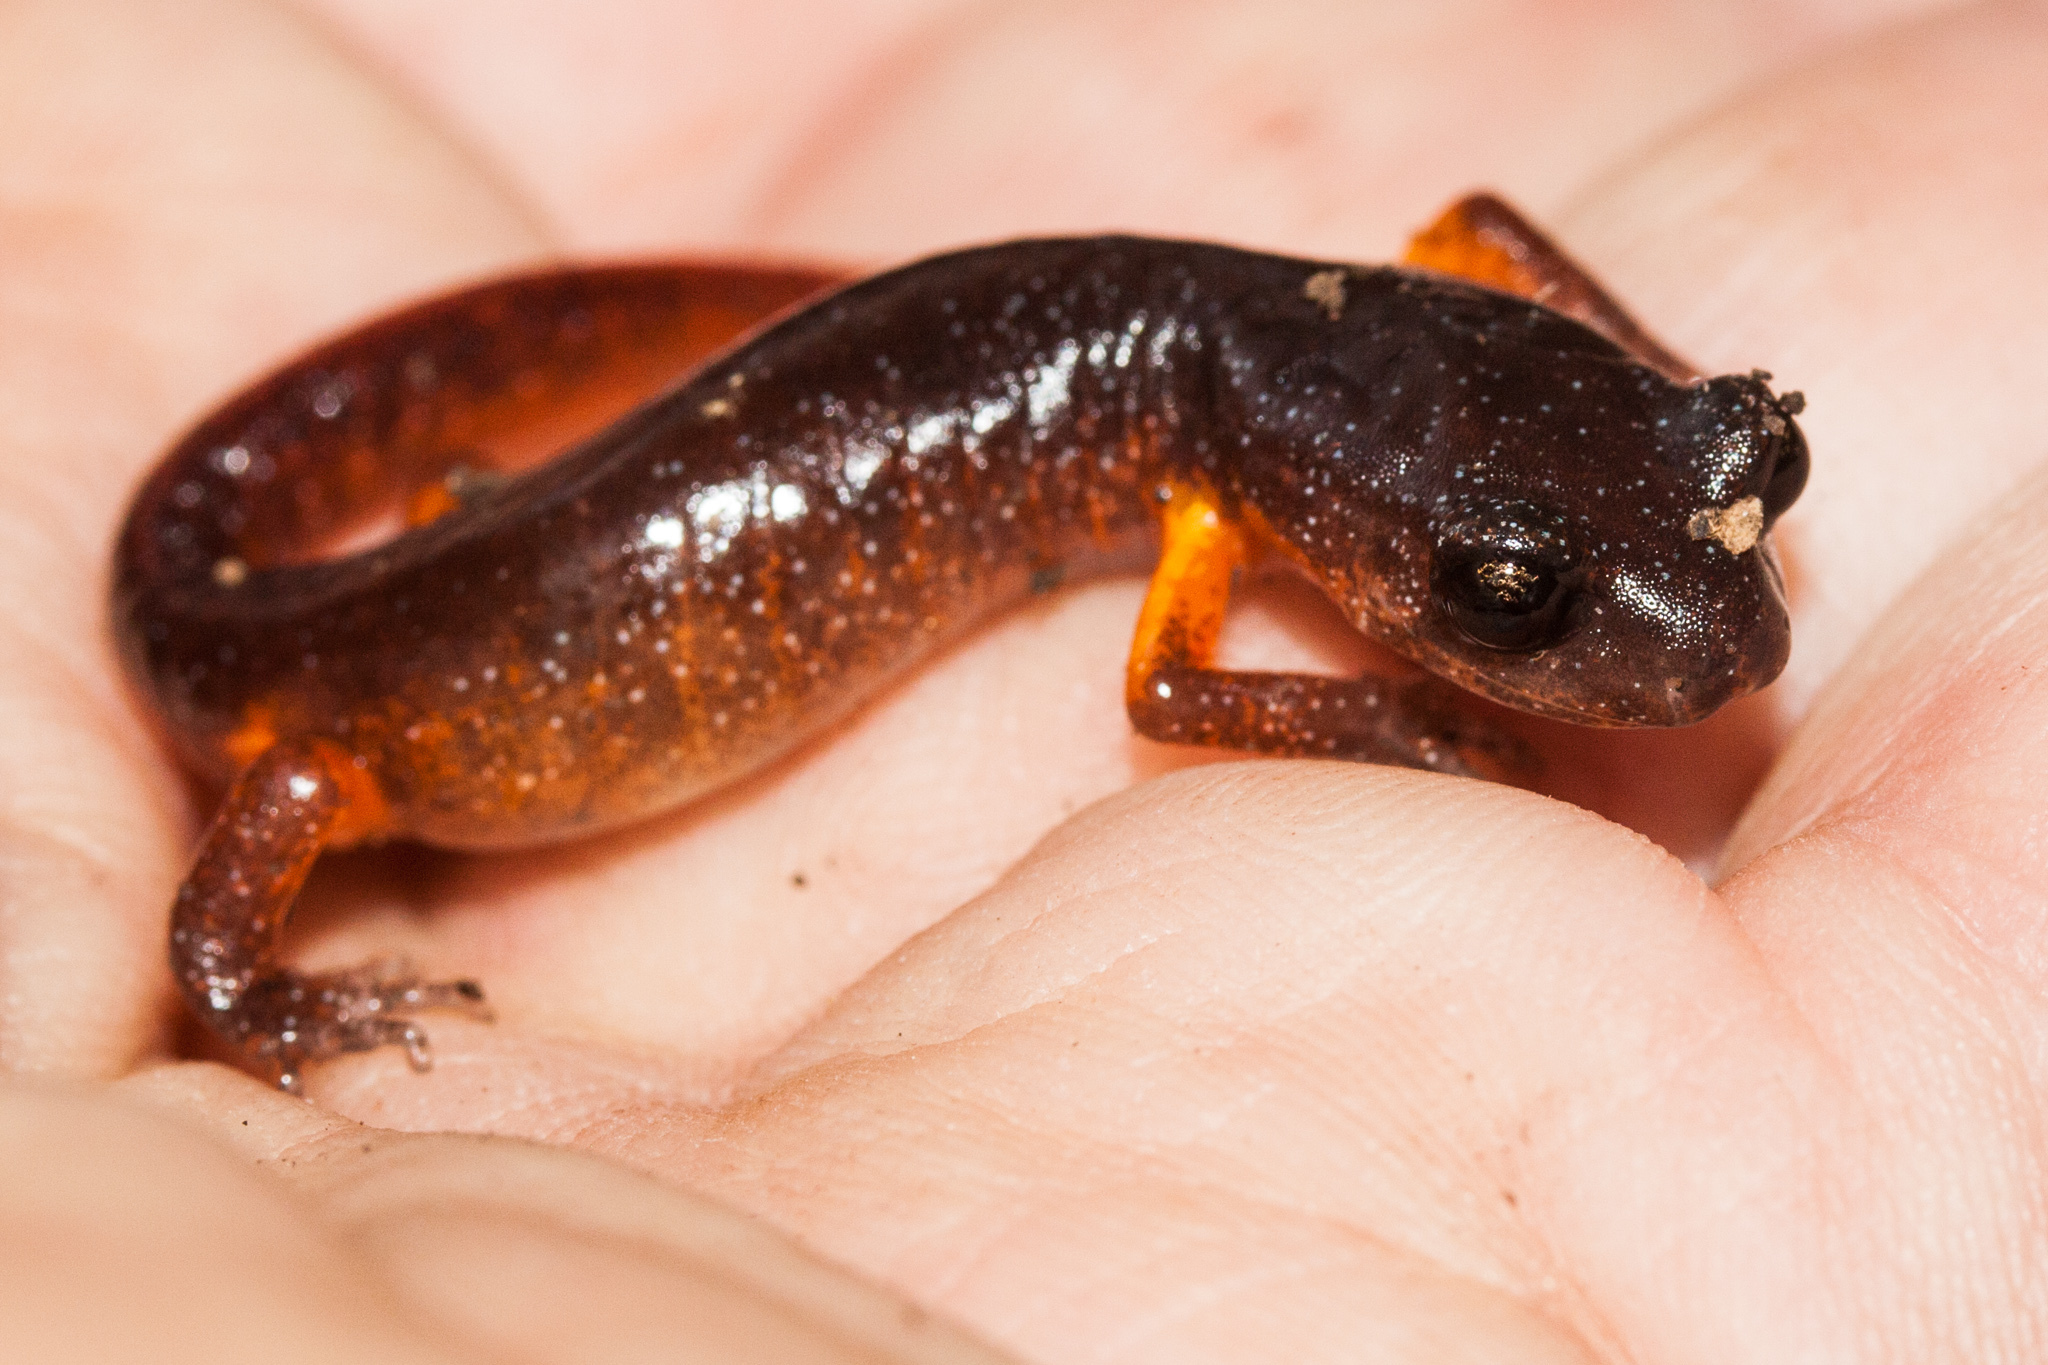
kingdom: Animalia
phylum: Chordata
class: Amphibia
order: Caudata
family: Plethodontidae
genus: Ensatina
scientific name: Ensatina eschscholtzii
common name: Ensatina
